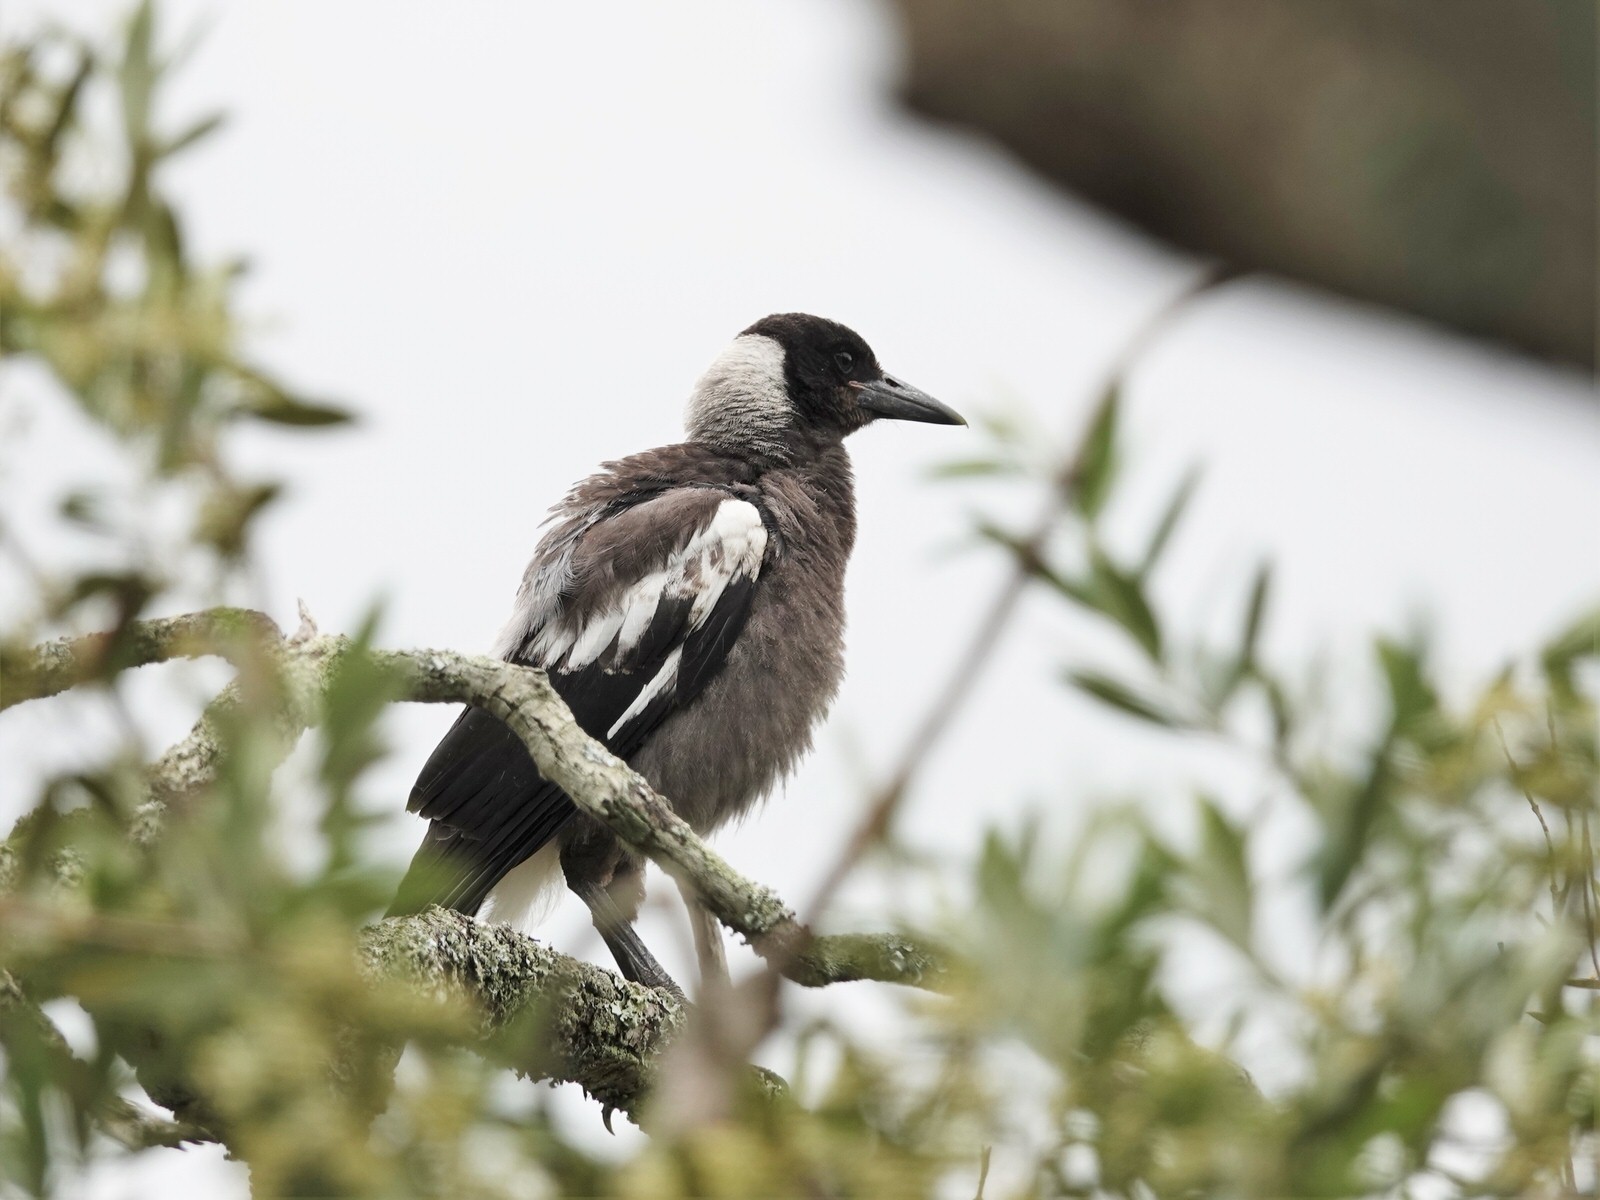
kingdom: Animalia
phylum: Chordata
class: Aves
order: Passeriformes
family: Cracticidae
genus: Gymnorhina
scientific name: Gymnorhina tibicen
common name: Australian magpie
